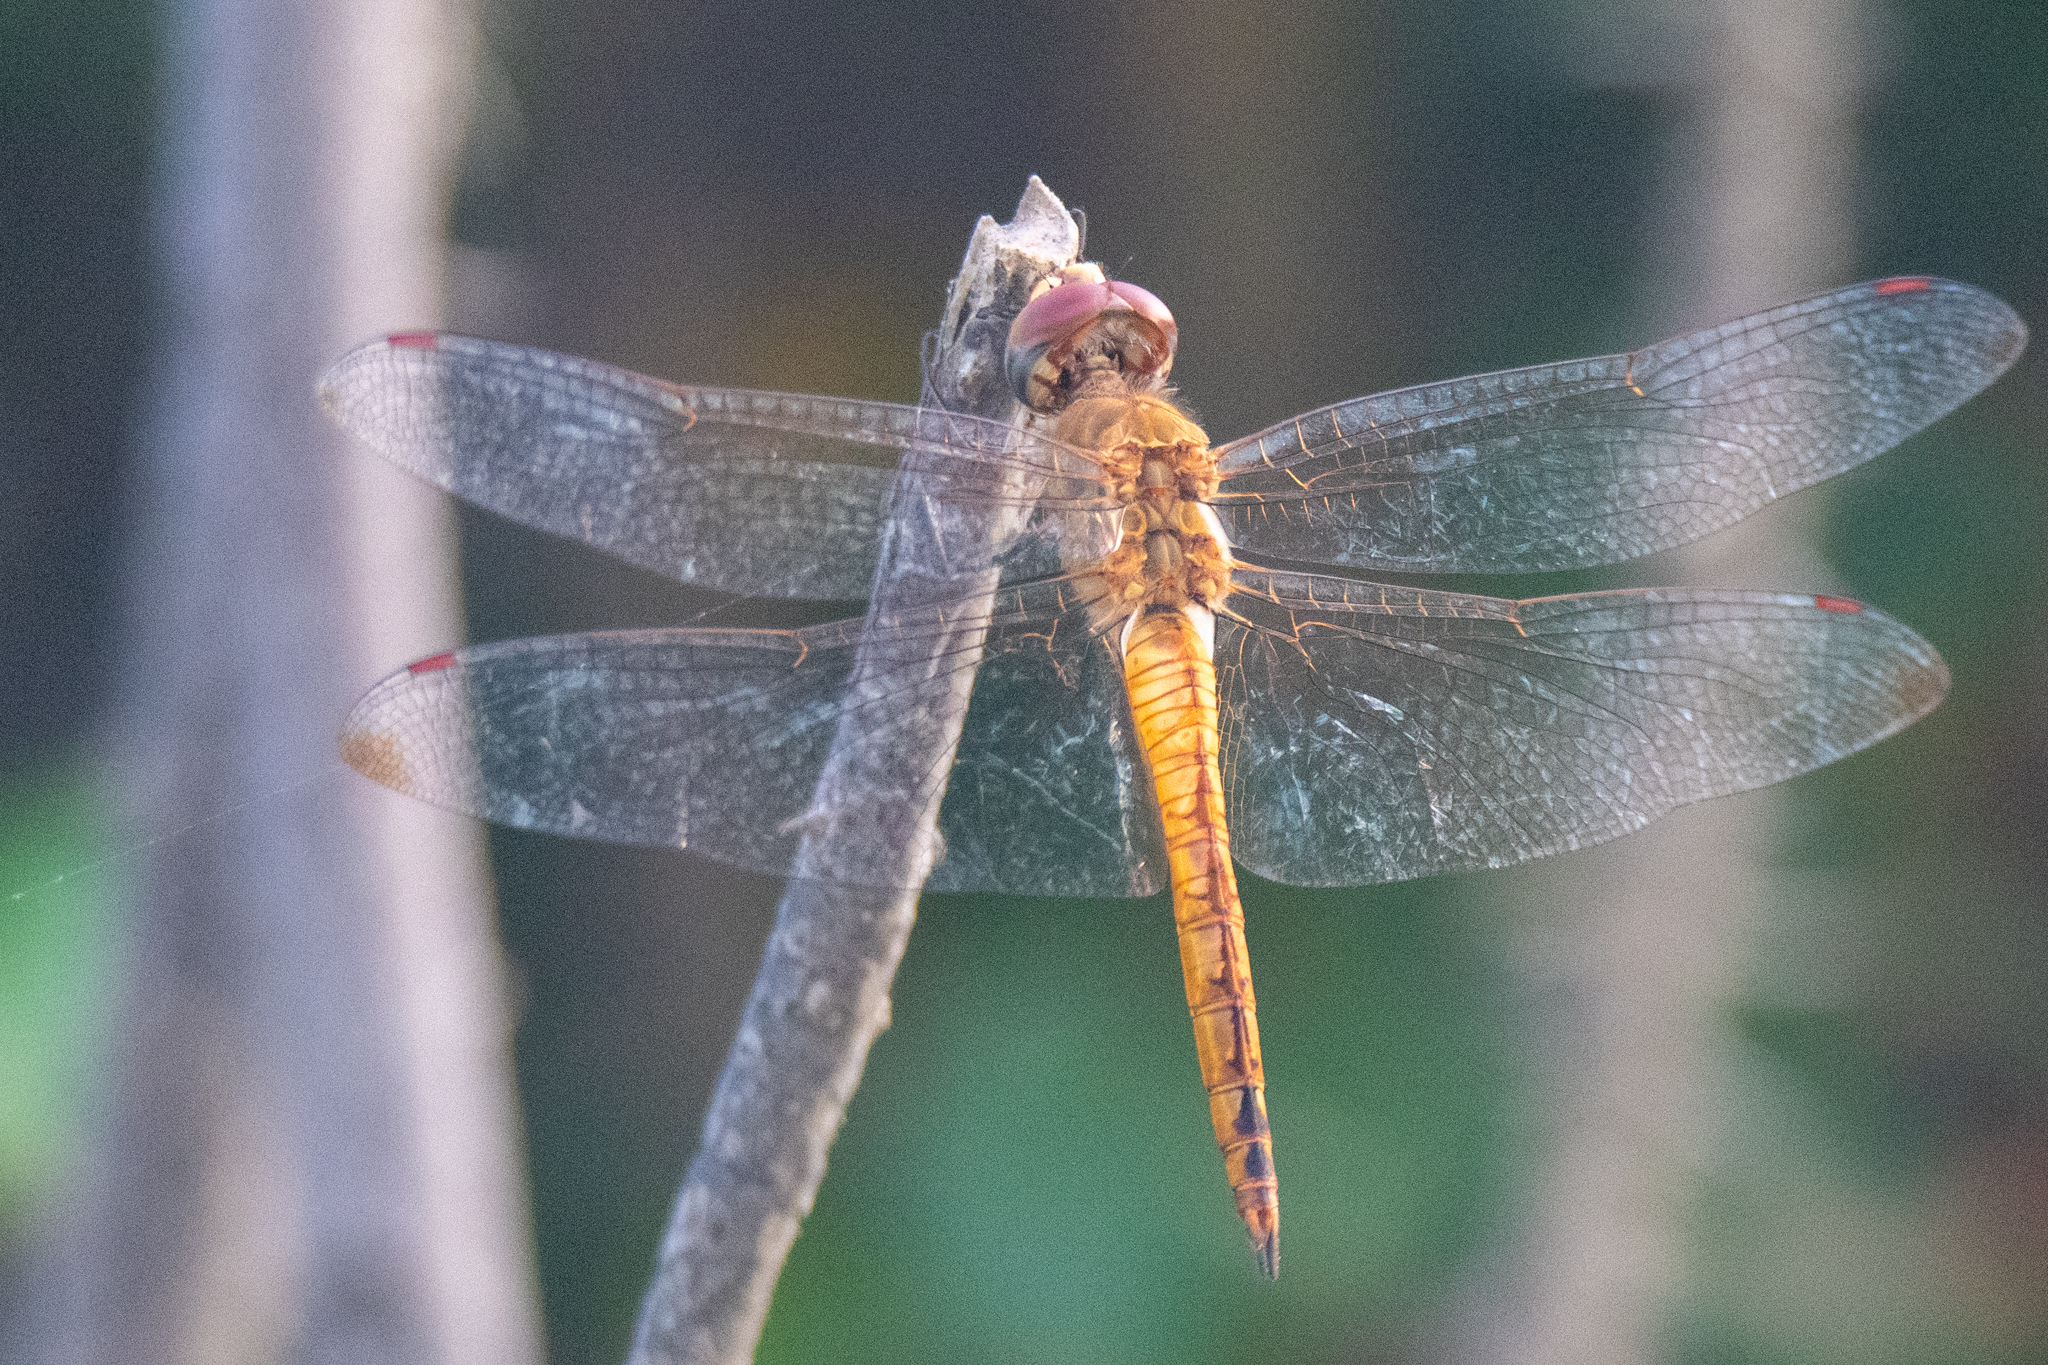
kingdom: Animalia
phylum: Arthropoda
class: Insecta
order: Odonata
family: Libellulidae
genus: Pantala
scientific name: Pantala flavescens
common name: Wandering glider
